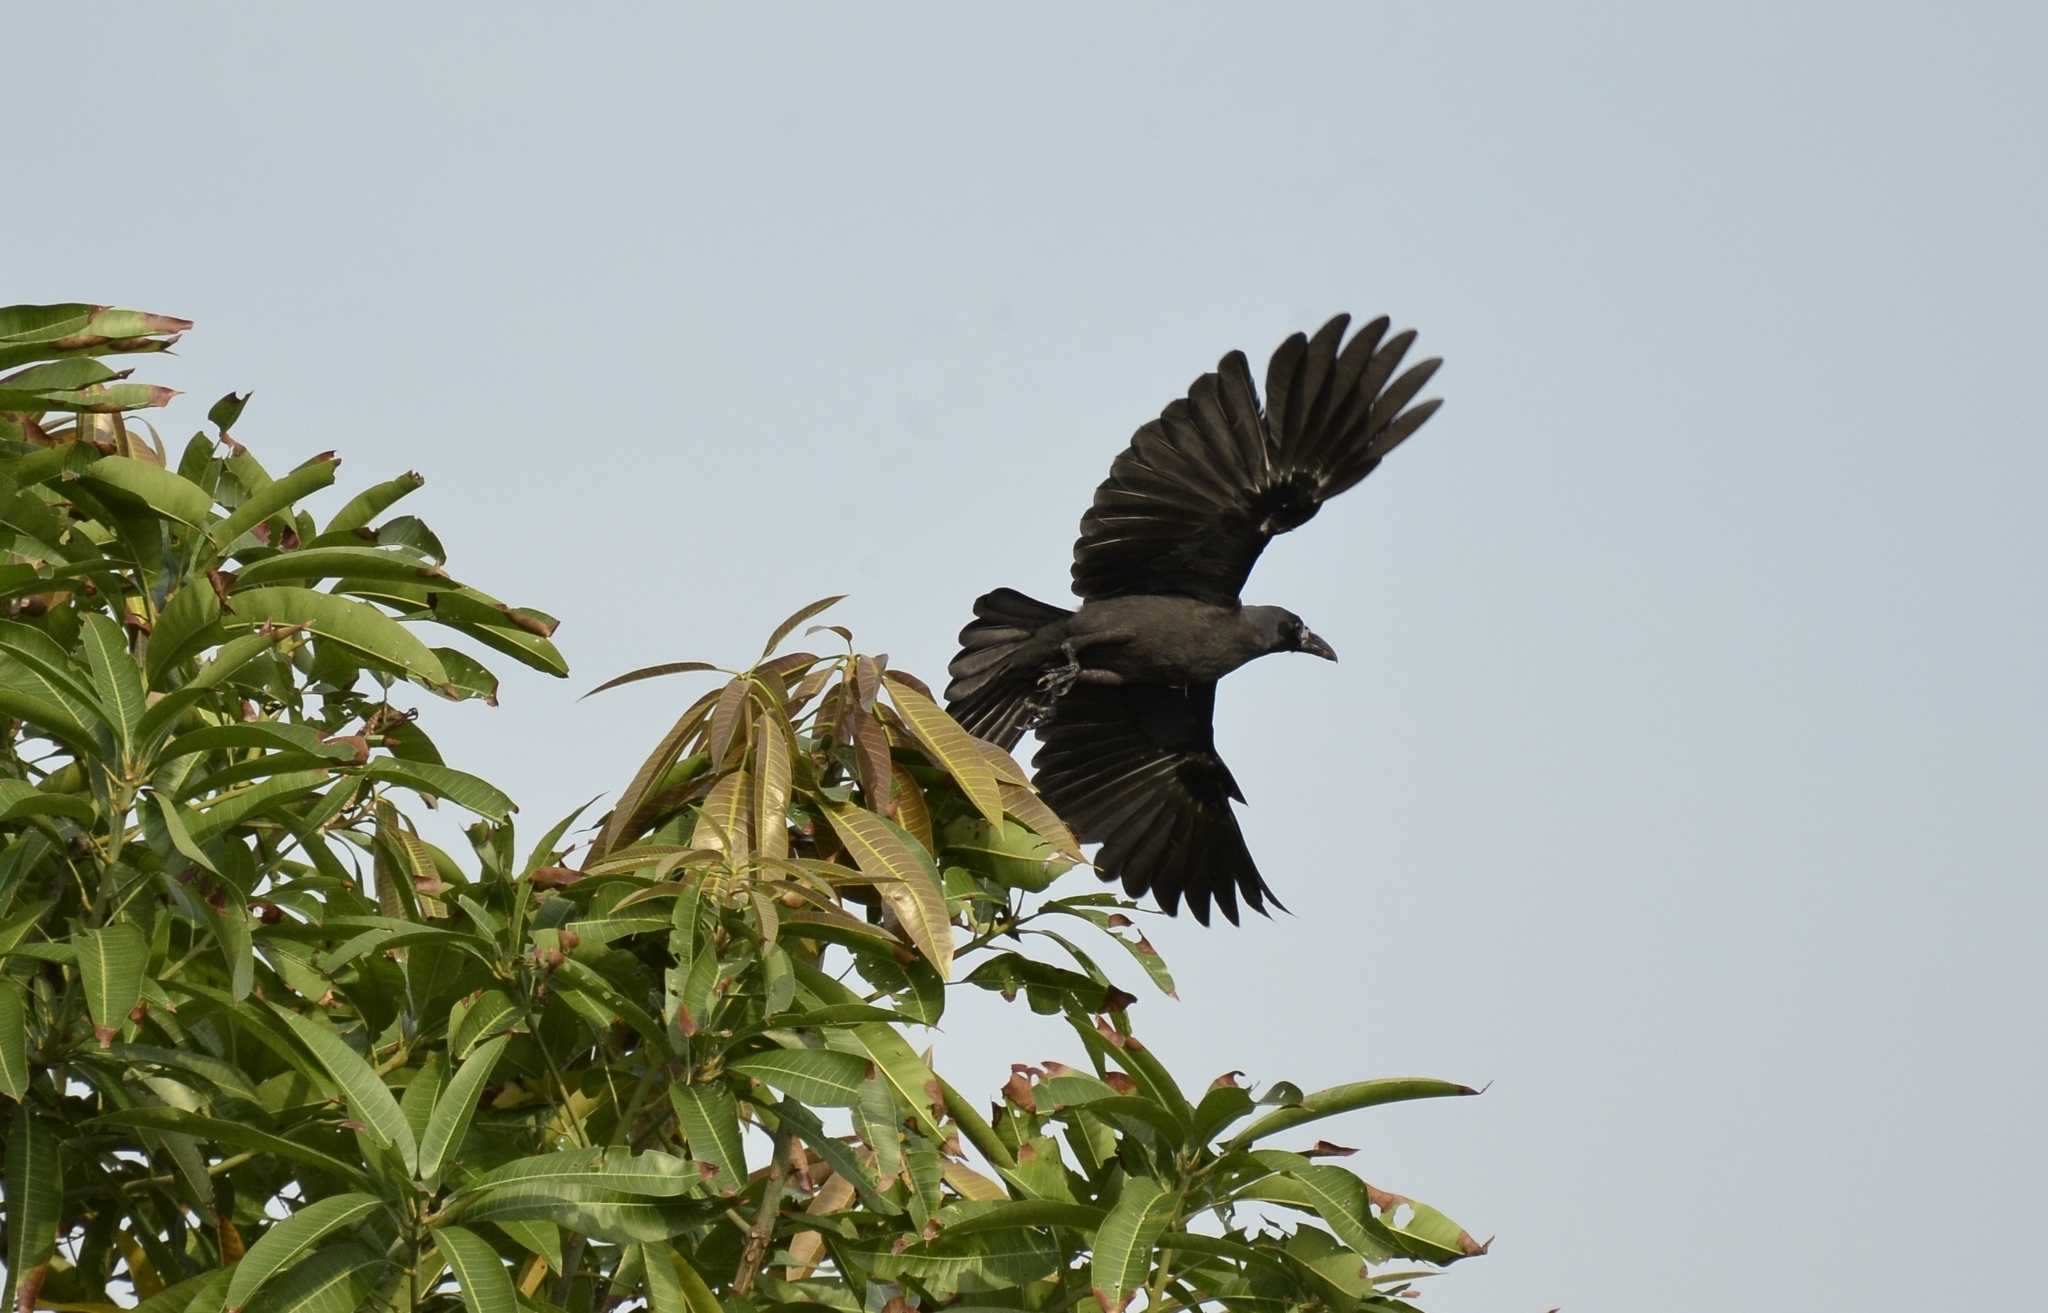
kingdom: Animalia
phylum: Chordata
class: Aves
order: Passeriformes
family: Corvidae
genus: Corvus
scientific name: Corvus splendens
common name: House crow
